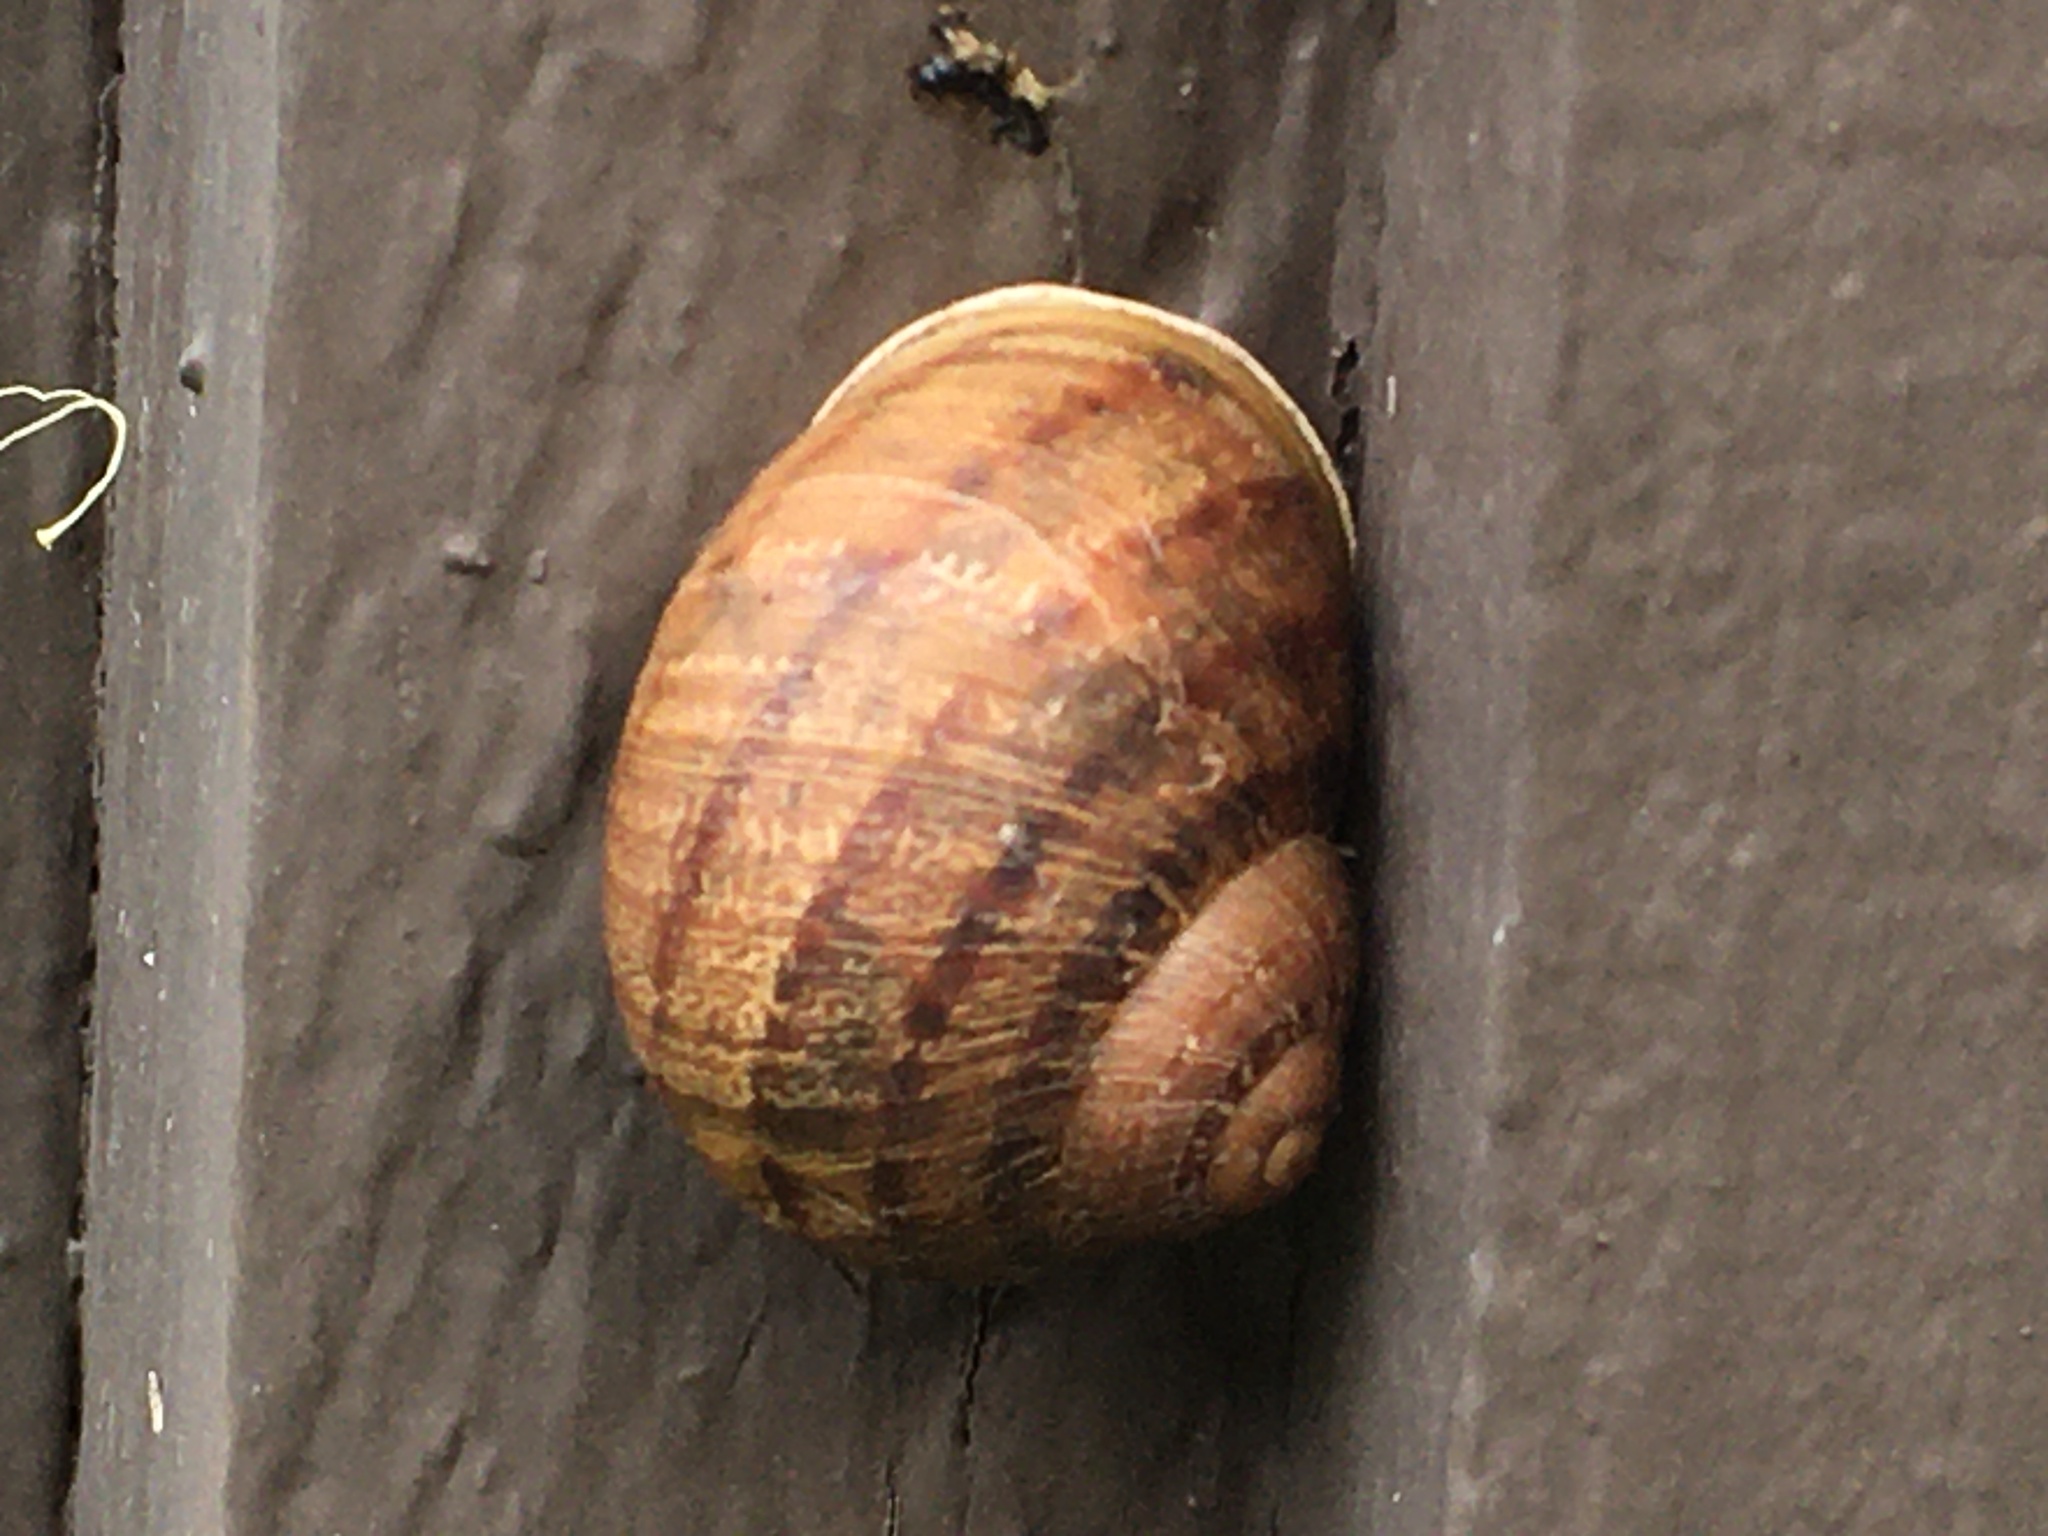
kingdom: Animalia
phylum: Mollusca
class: Gastropoda
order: Stylommatophora
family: Helicidae
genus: Cornu
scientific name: Cornu aspersum
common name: Brown garden snail
